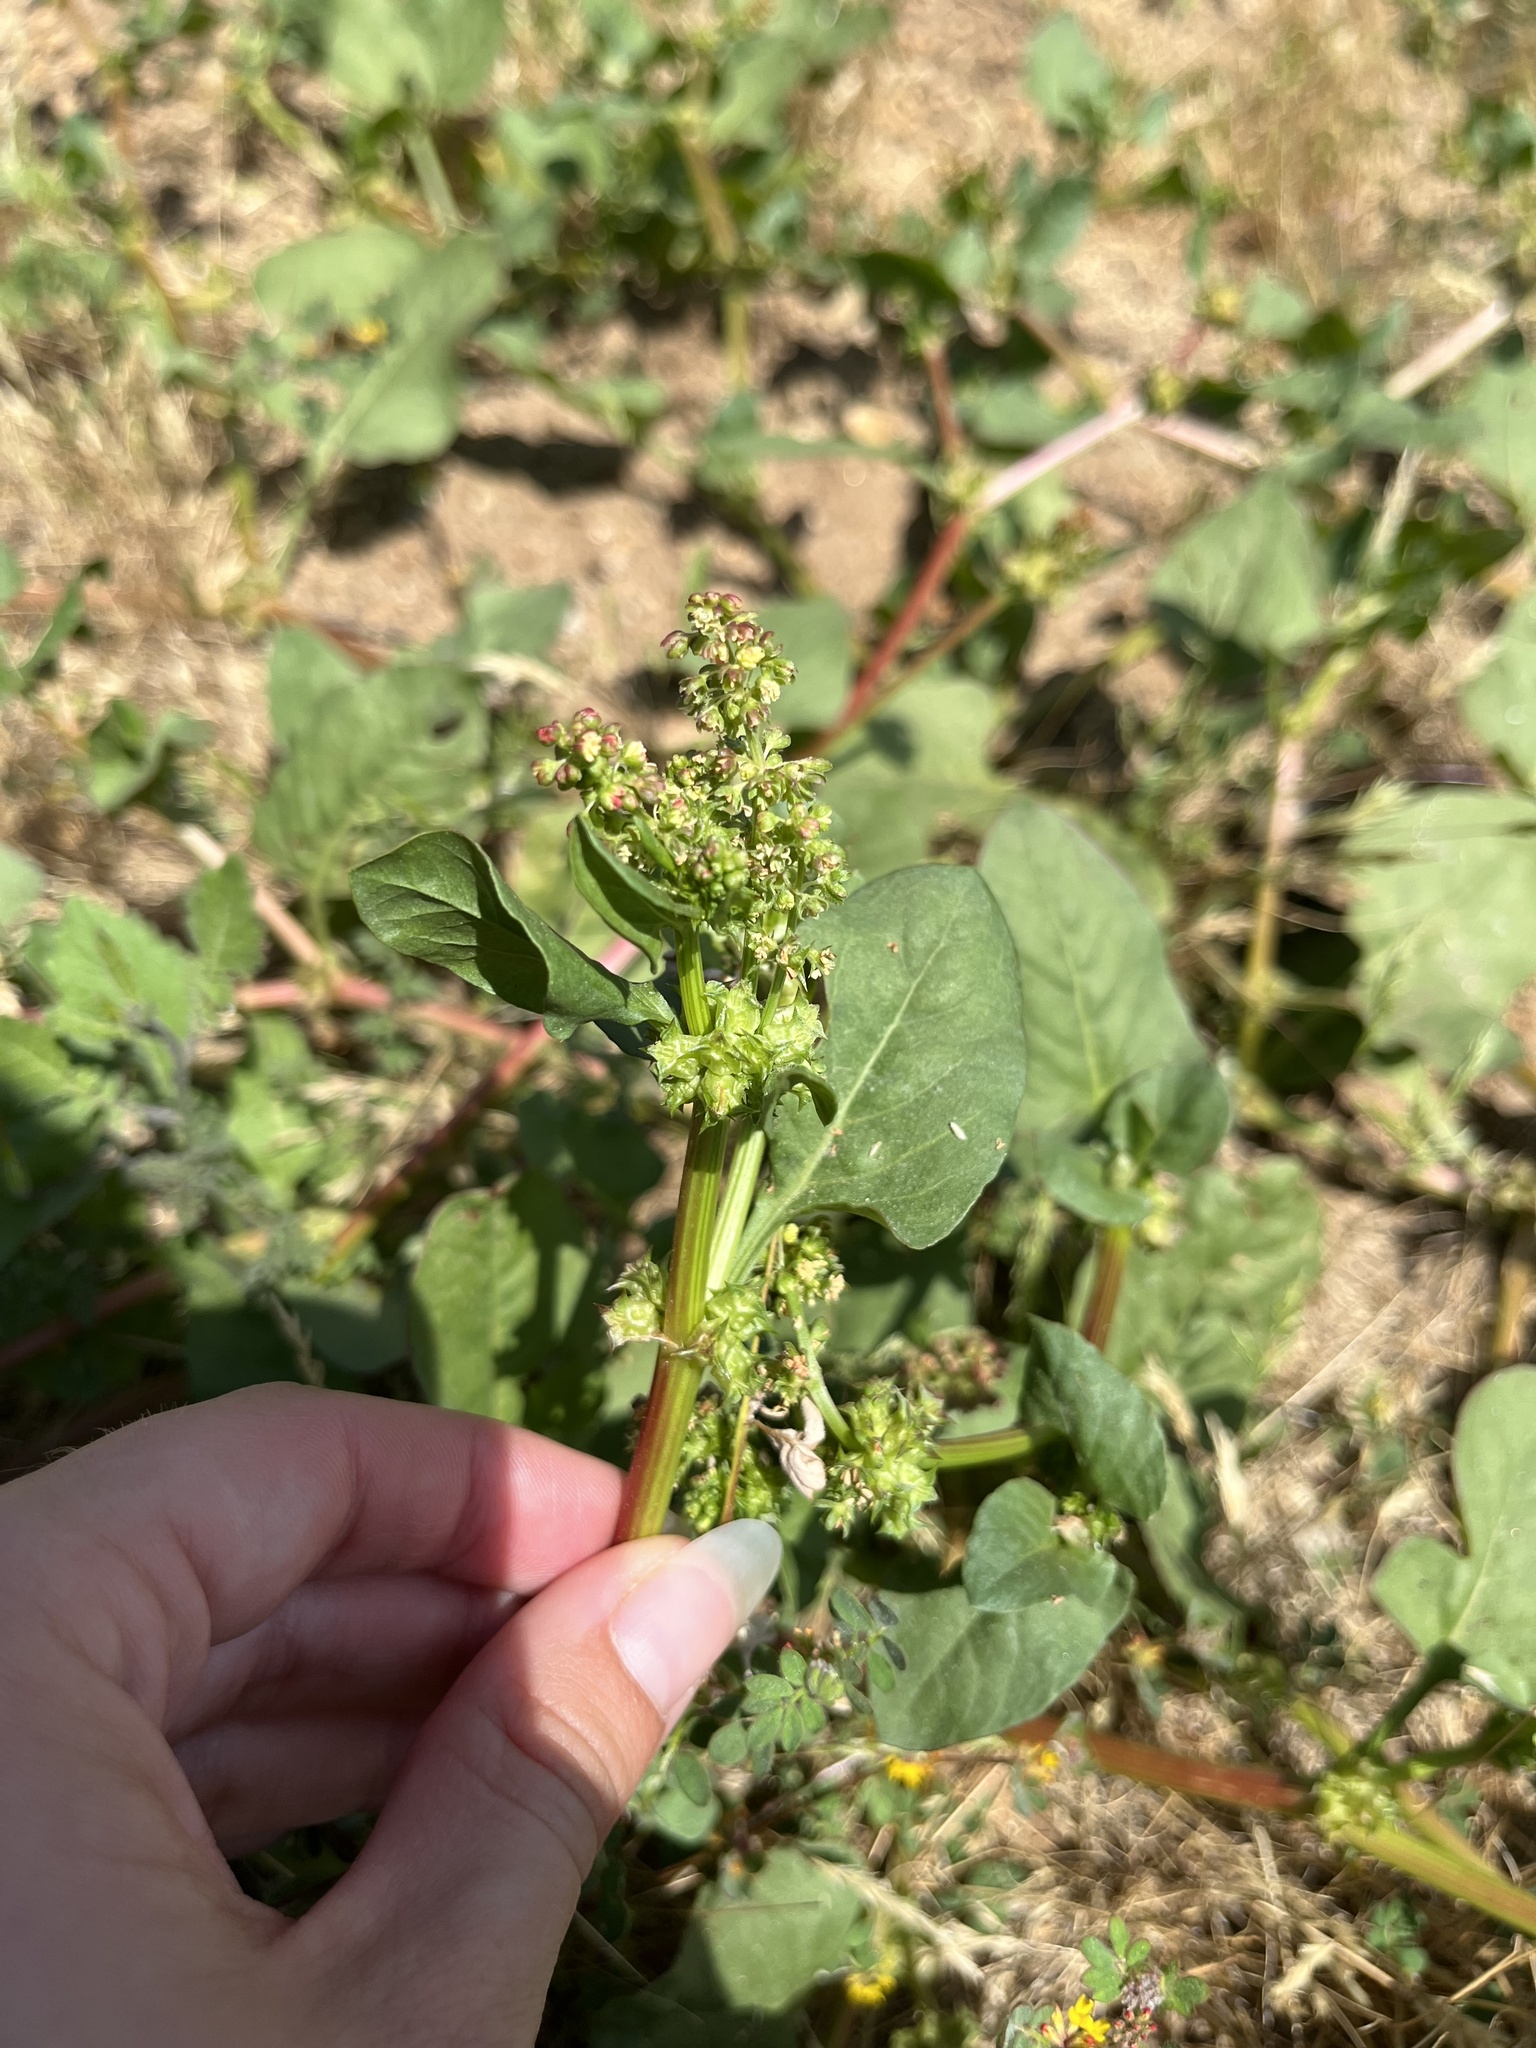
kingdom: Plantae
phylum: Tracheophyta
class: Magnoliopsida
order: Caryophyllales
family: Polygonaceae
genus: Rumex
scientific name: Rumex spinosus
